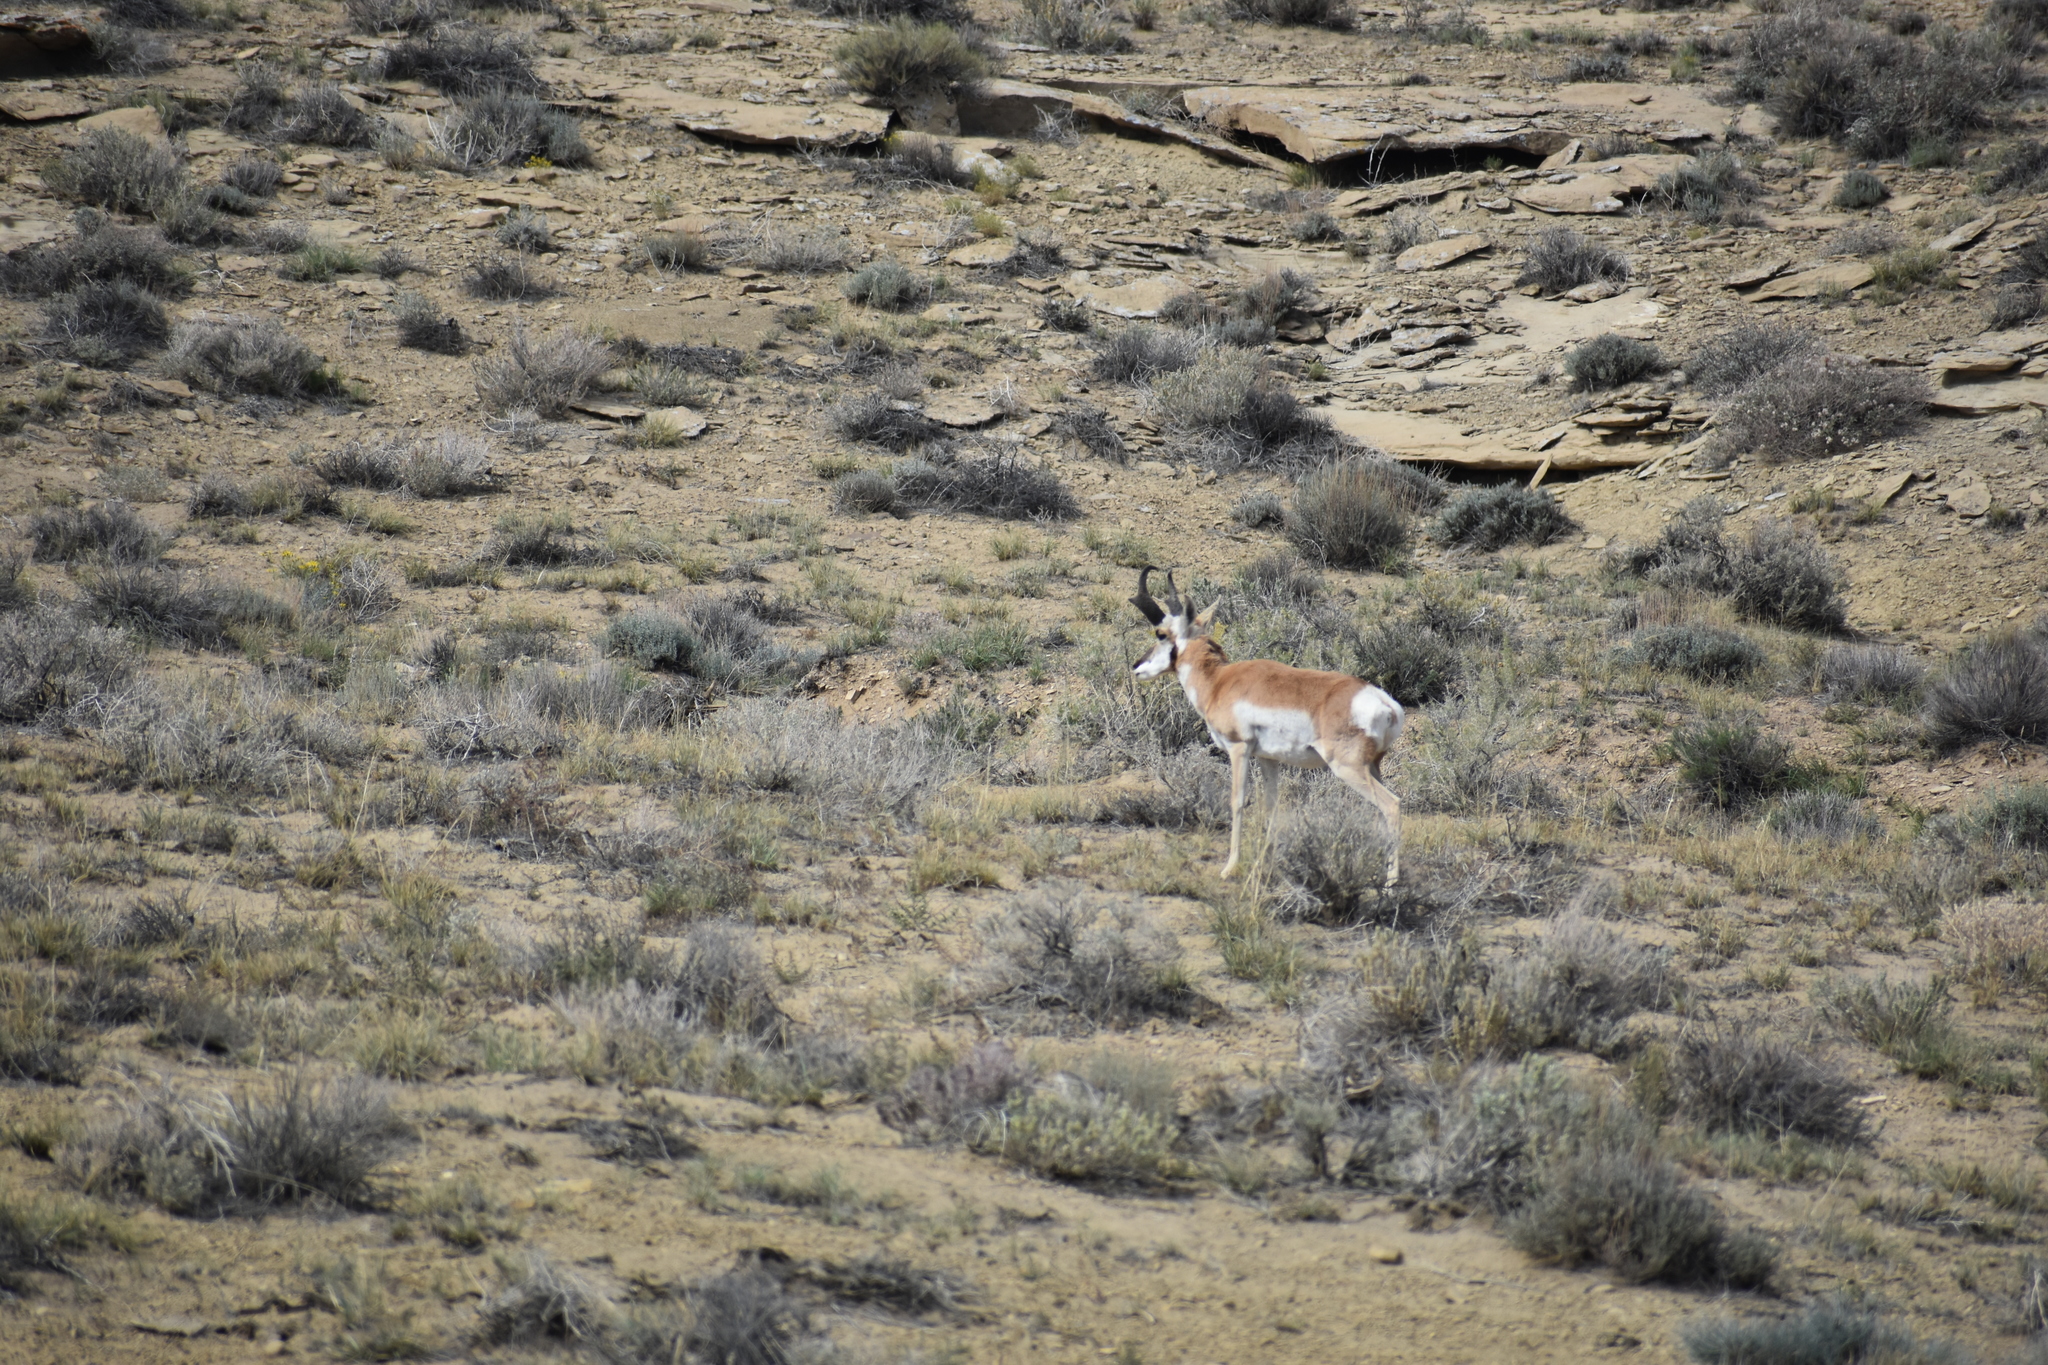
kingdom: Animalia
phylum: Chordata
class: Mammalia
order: Artiodactyla
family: Antilocapridae
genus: Antilocapra
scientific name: Antilocapra americana
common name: Pronghorn
